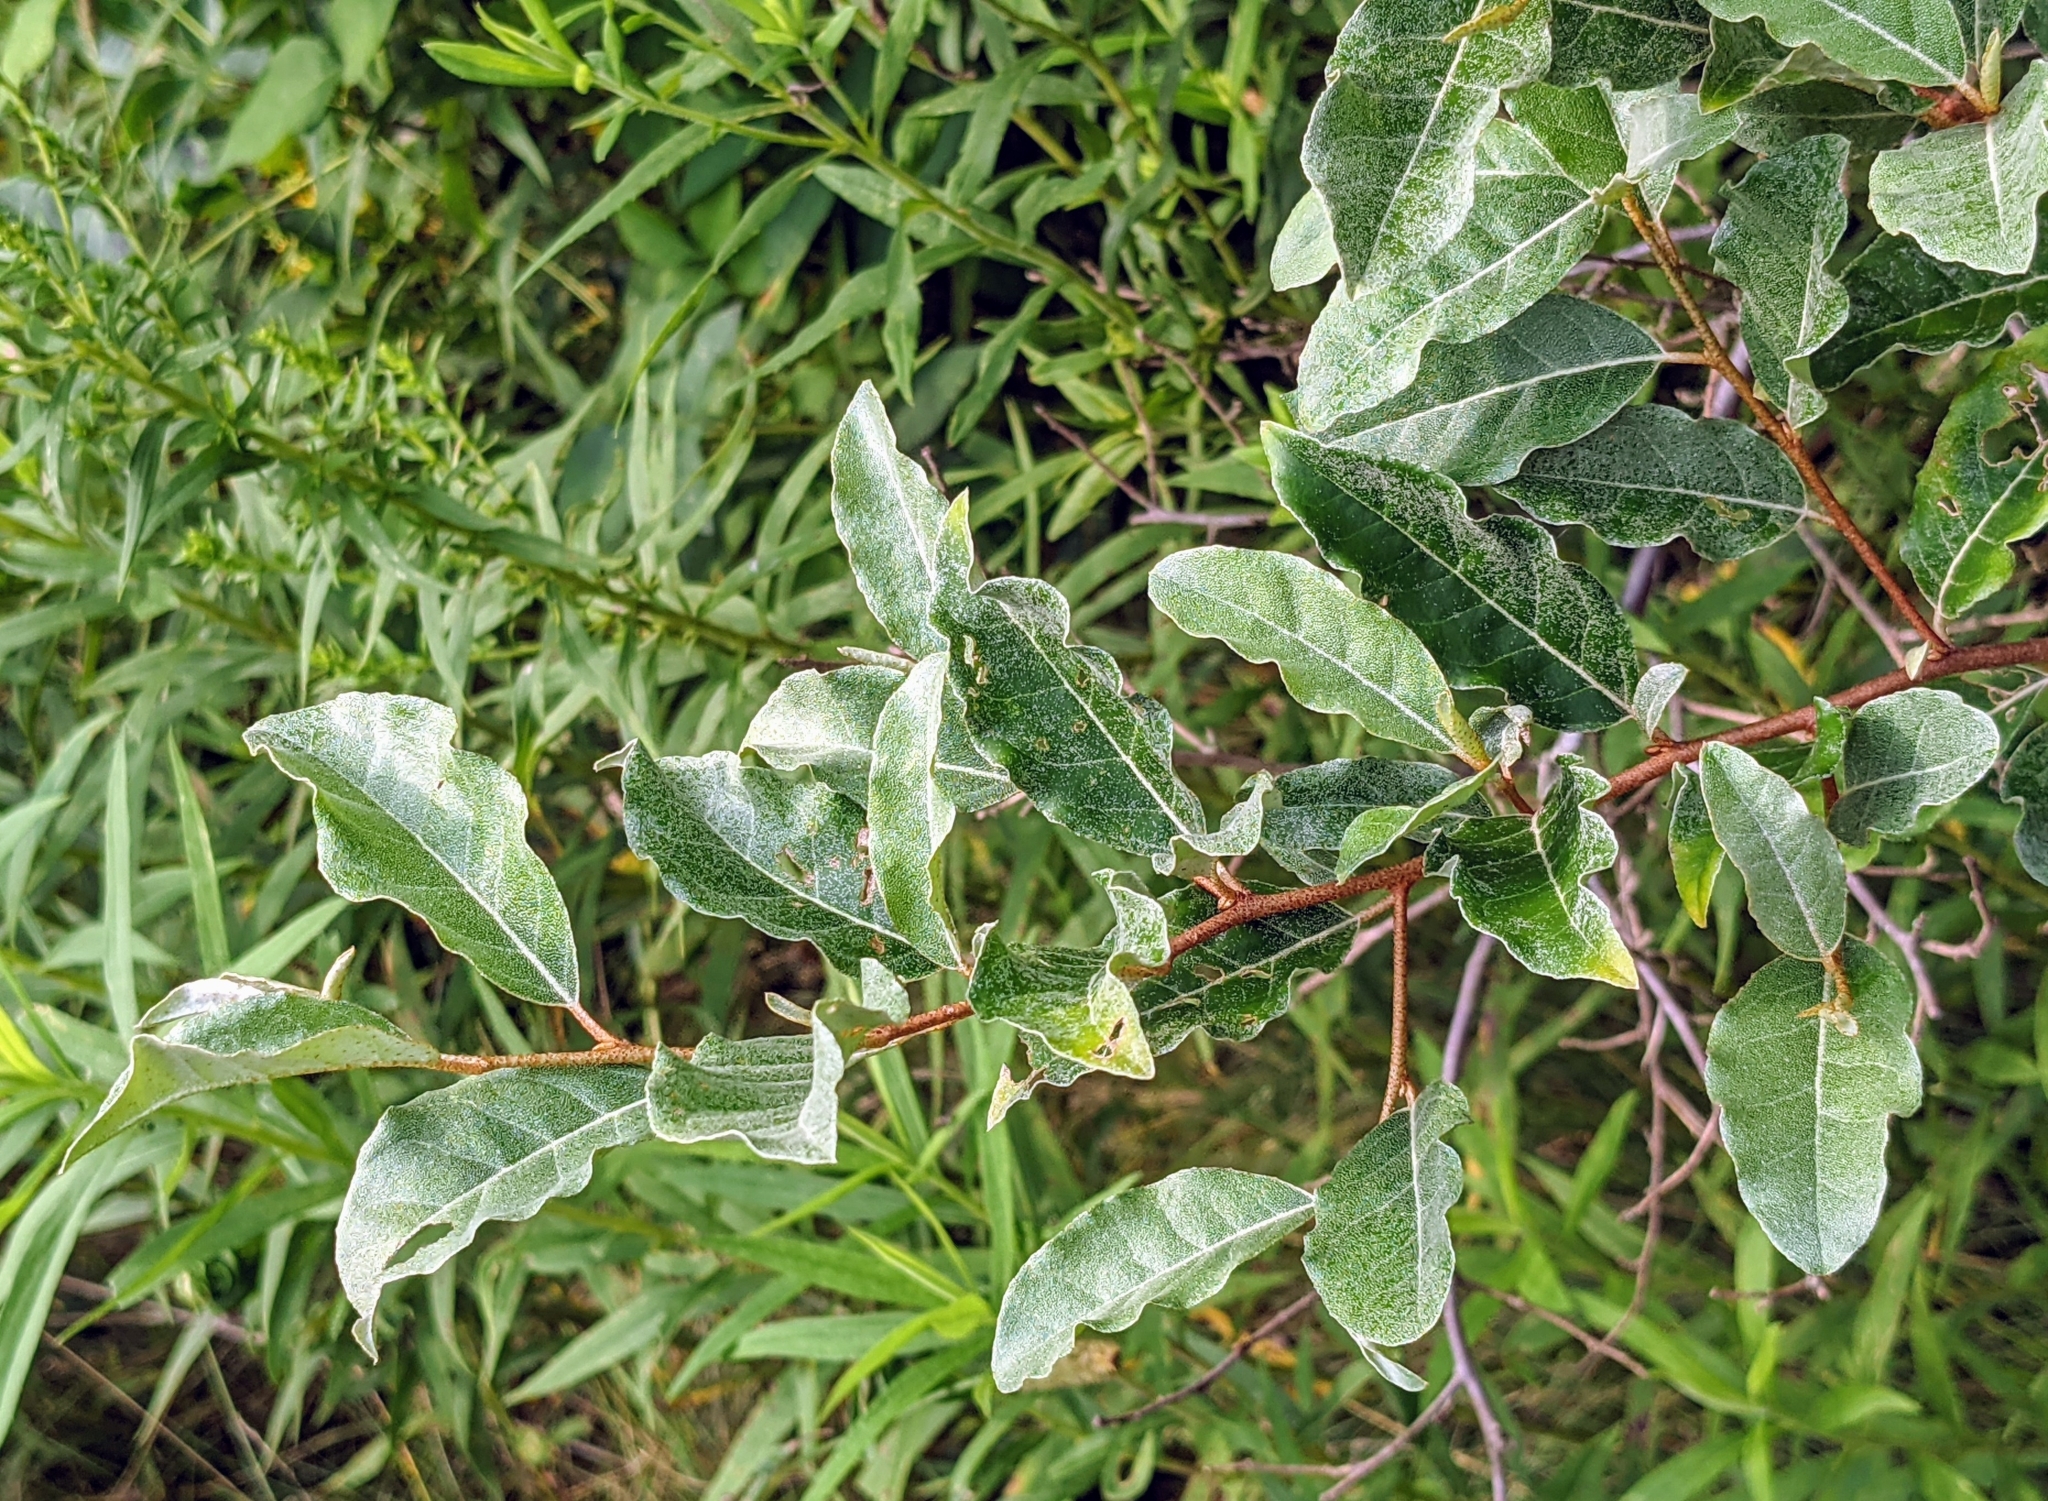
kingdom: Plantae
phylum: Tracheophyta
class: Magnoliopsida
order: Rosales
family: Elaeagnaceae
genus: Elaeagnus
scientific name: Elaeagnus umbellata
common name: Autumn olive
